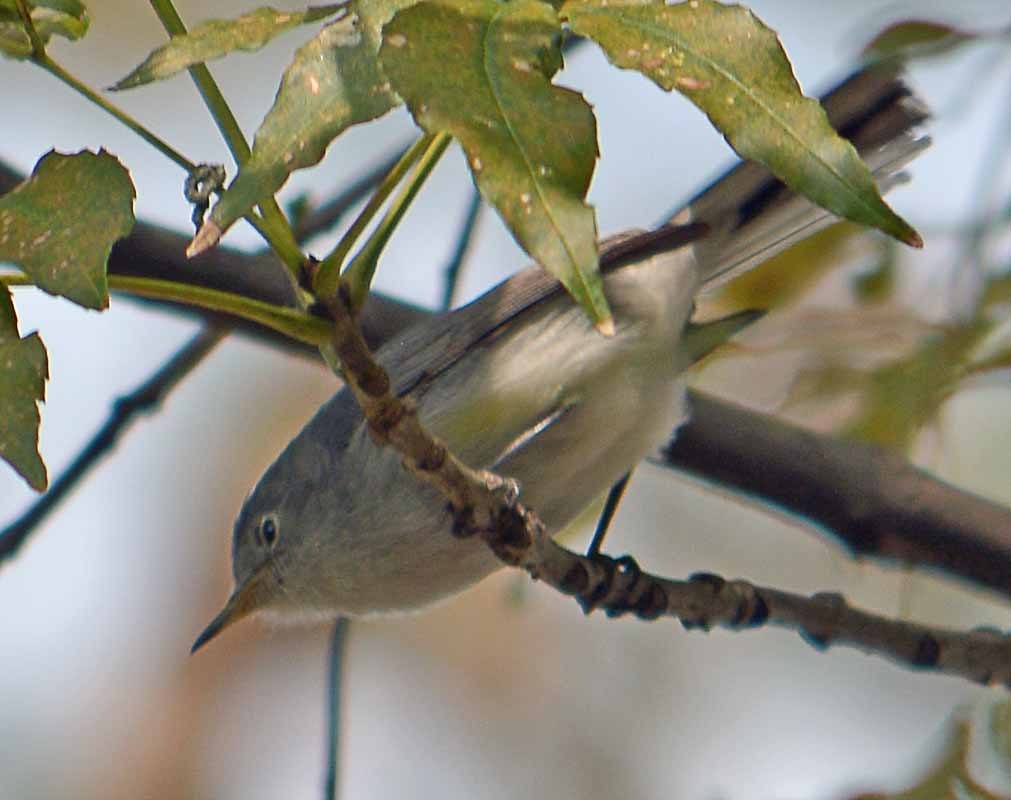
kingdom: Animalia
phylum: Chordata
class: Aves
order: Passeriformes
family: Polioptilidae
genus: Polioptila
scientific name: Polioptila caerulea
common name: Blue-gray gnatcatcher
